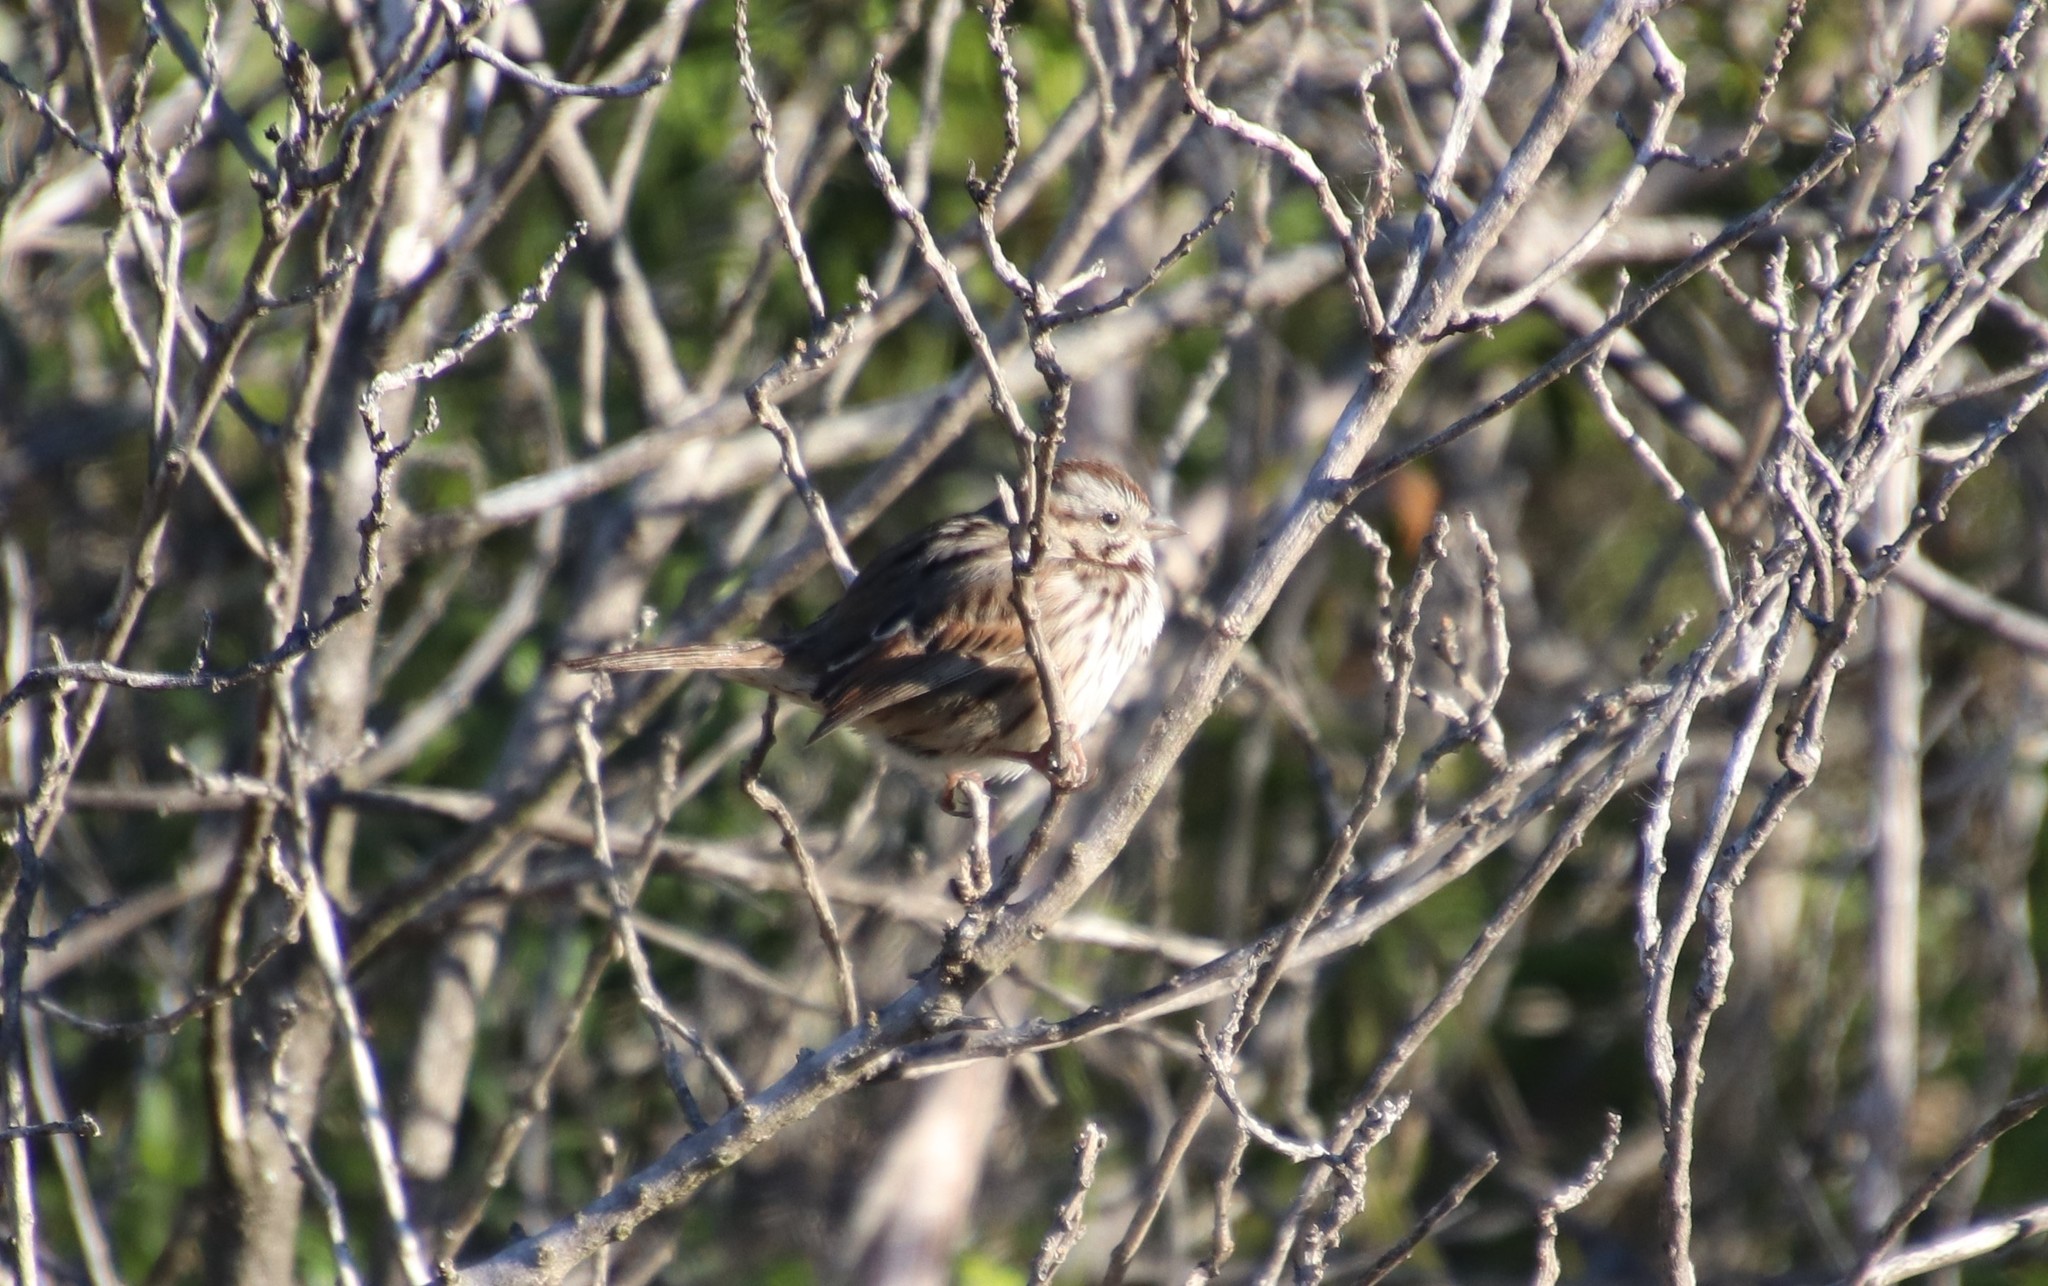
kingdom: Animalia
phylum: Chordata
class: Aves
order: Passeriformes
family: Passerellidae
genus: Melospiza
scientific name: Melospiza melodia
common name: Song sparrow
